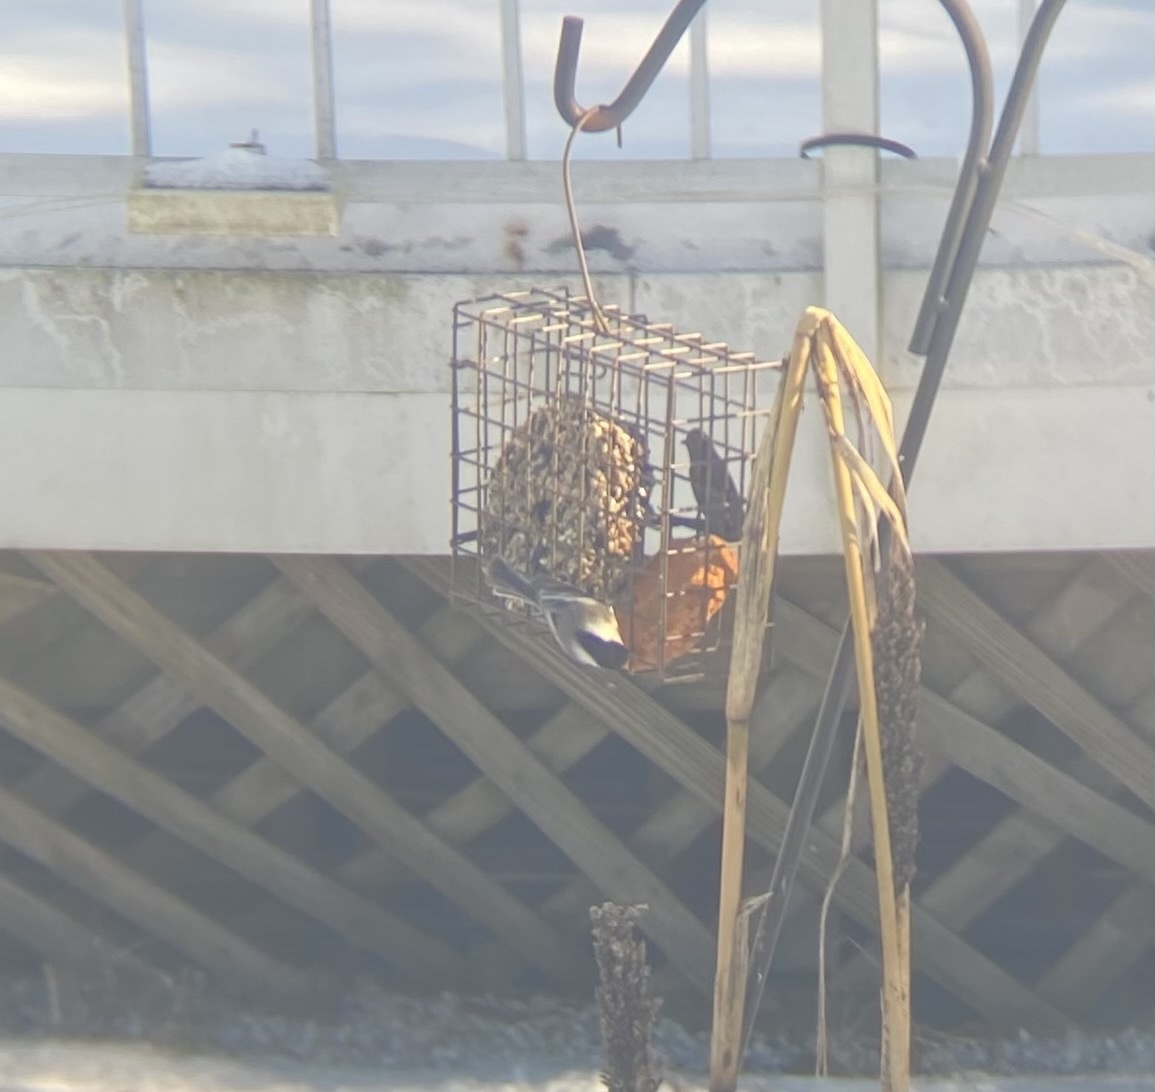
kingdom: Animalia
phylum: Chordata
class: Aves
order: Passeriformes
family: Paridae
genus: Poecile
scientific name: Poecile atricapillus
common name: Black-capped chickadee
